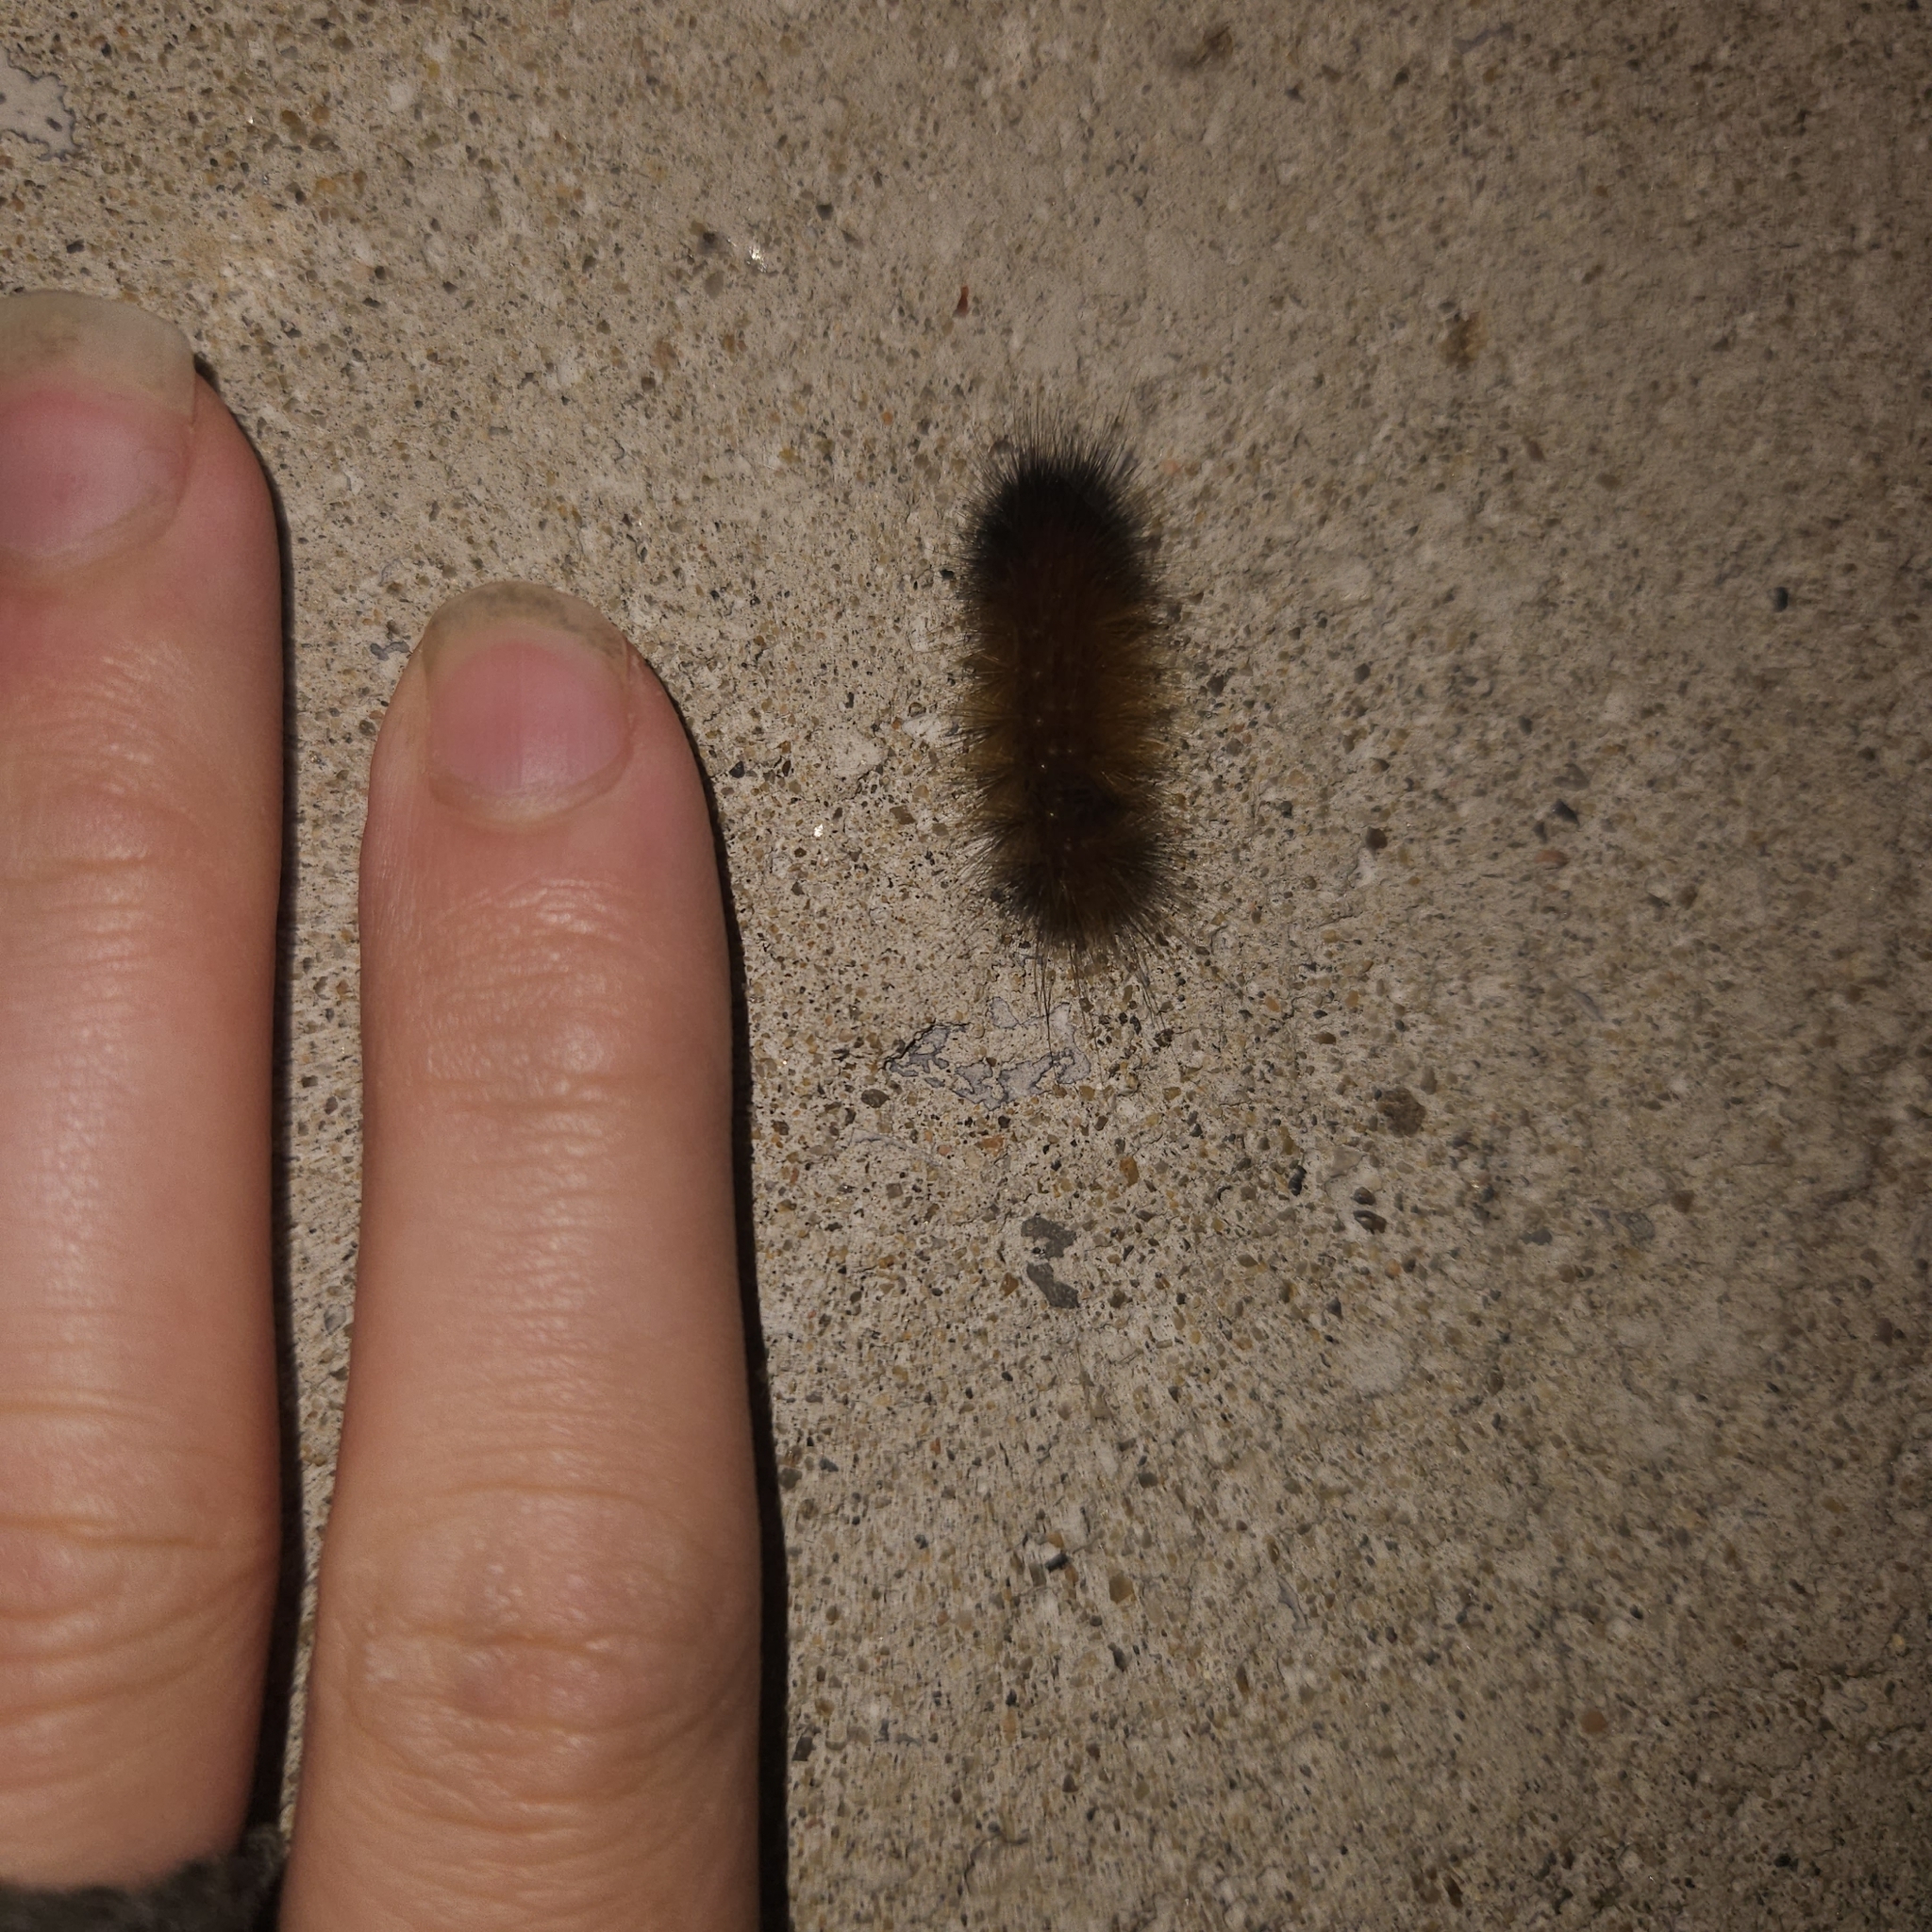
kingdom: Animalia
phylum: Arthropoda
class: Insecta
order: Lepidoptera
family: Erebidae
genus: Pyrrharctia
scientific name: Pyrrharctia isabella
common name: Isabella tiger moth
